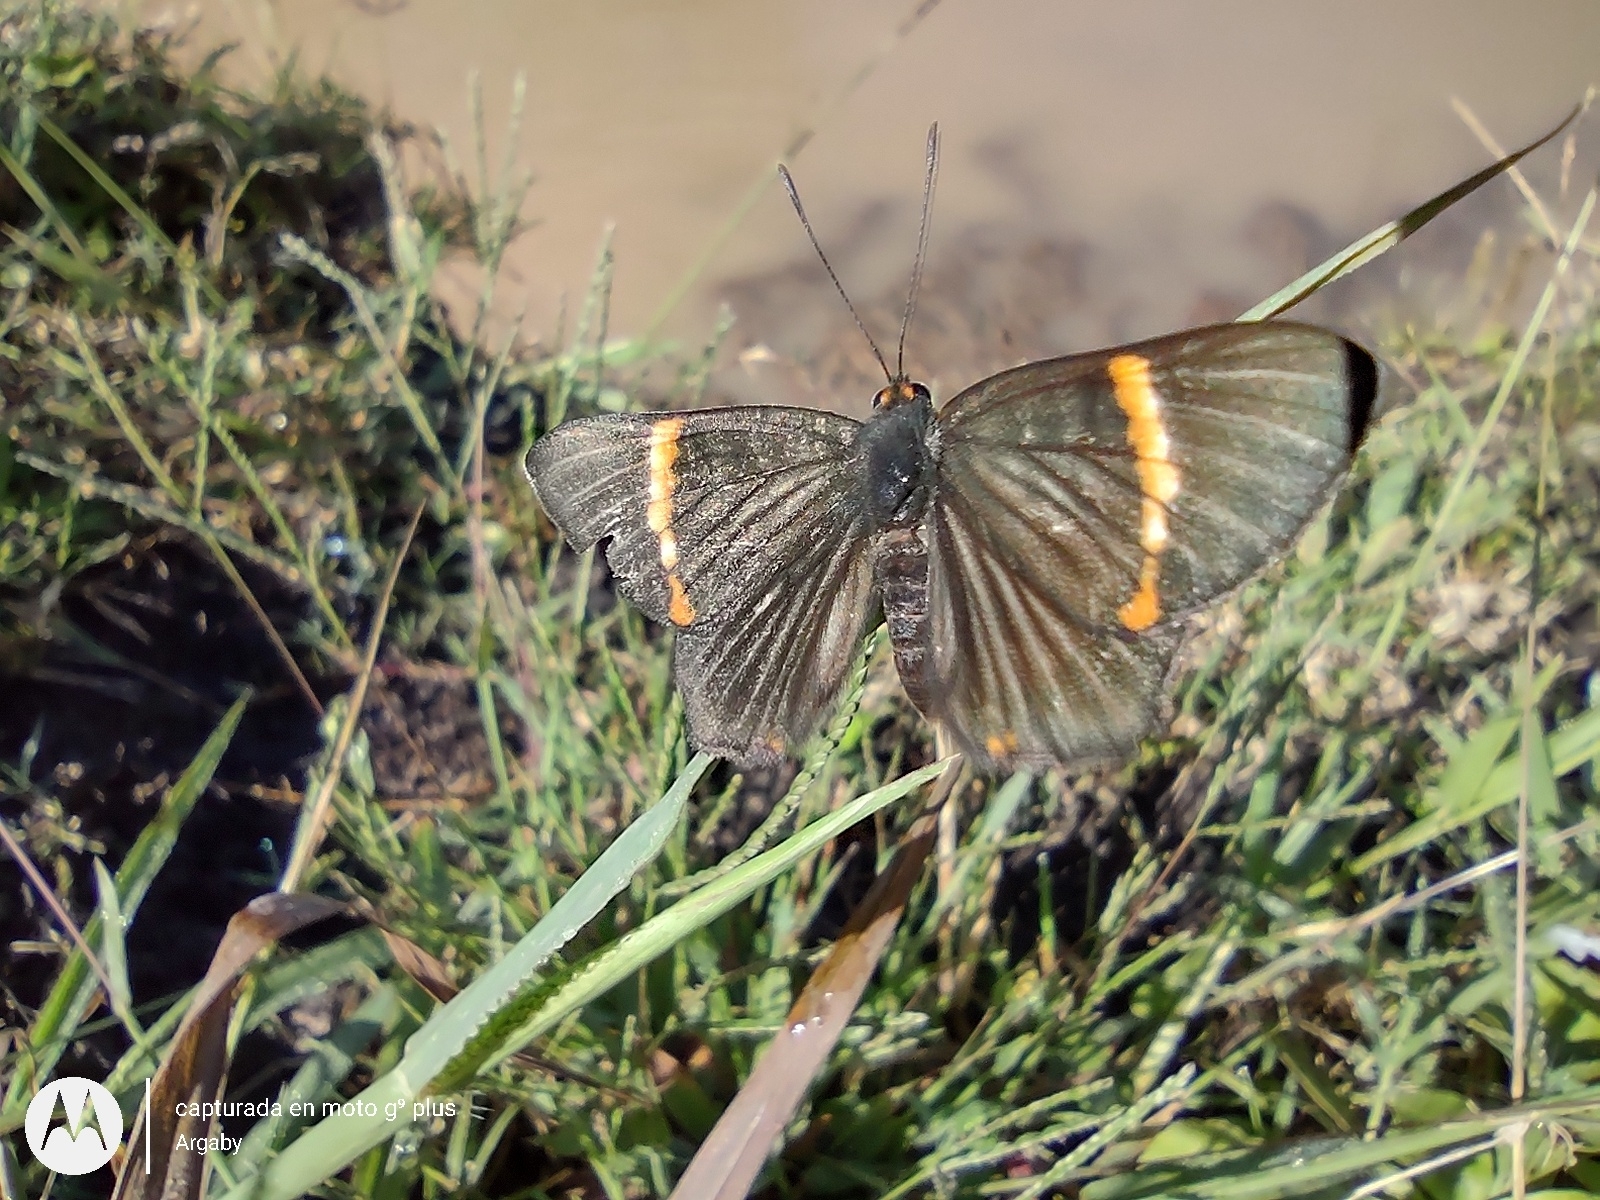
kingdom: Animalia
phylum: Arthropoda
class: Insecta
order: Lepidoptera
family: Riodinidae
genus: Riodina
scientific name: Riodina lycisca
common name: Lycisca metalmark
